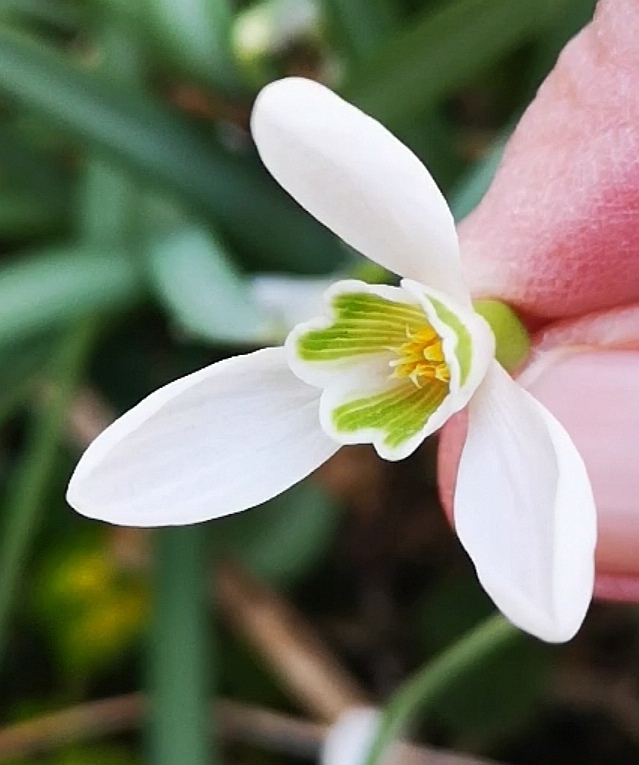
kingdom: Plantae
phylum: Tracheophyta
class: Liliopsida
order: Asparagales
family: Amaryllidaceae
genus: Galanthus
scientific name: Galanthus nivalis
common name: Snowdrop
